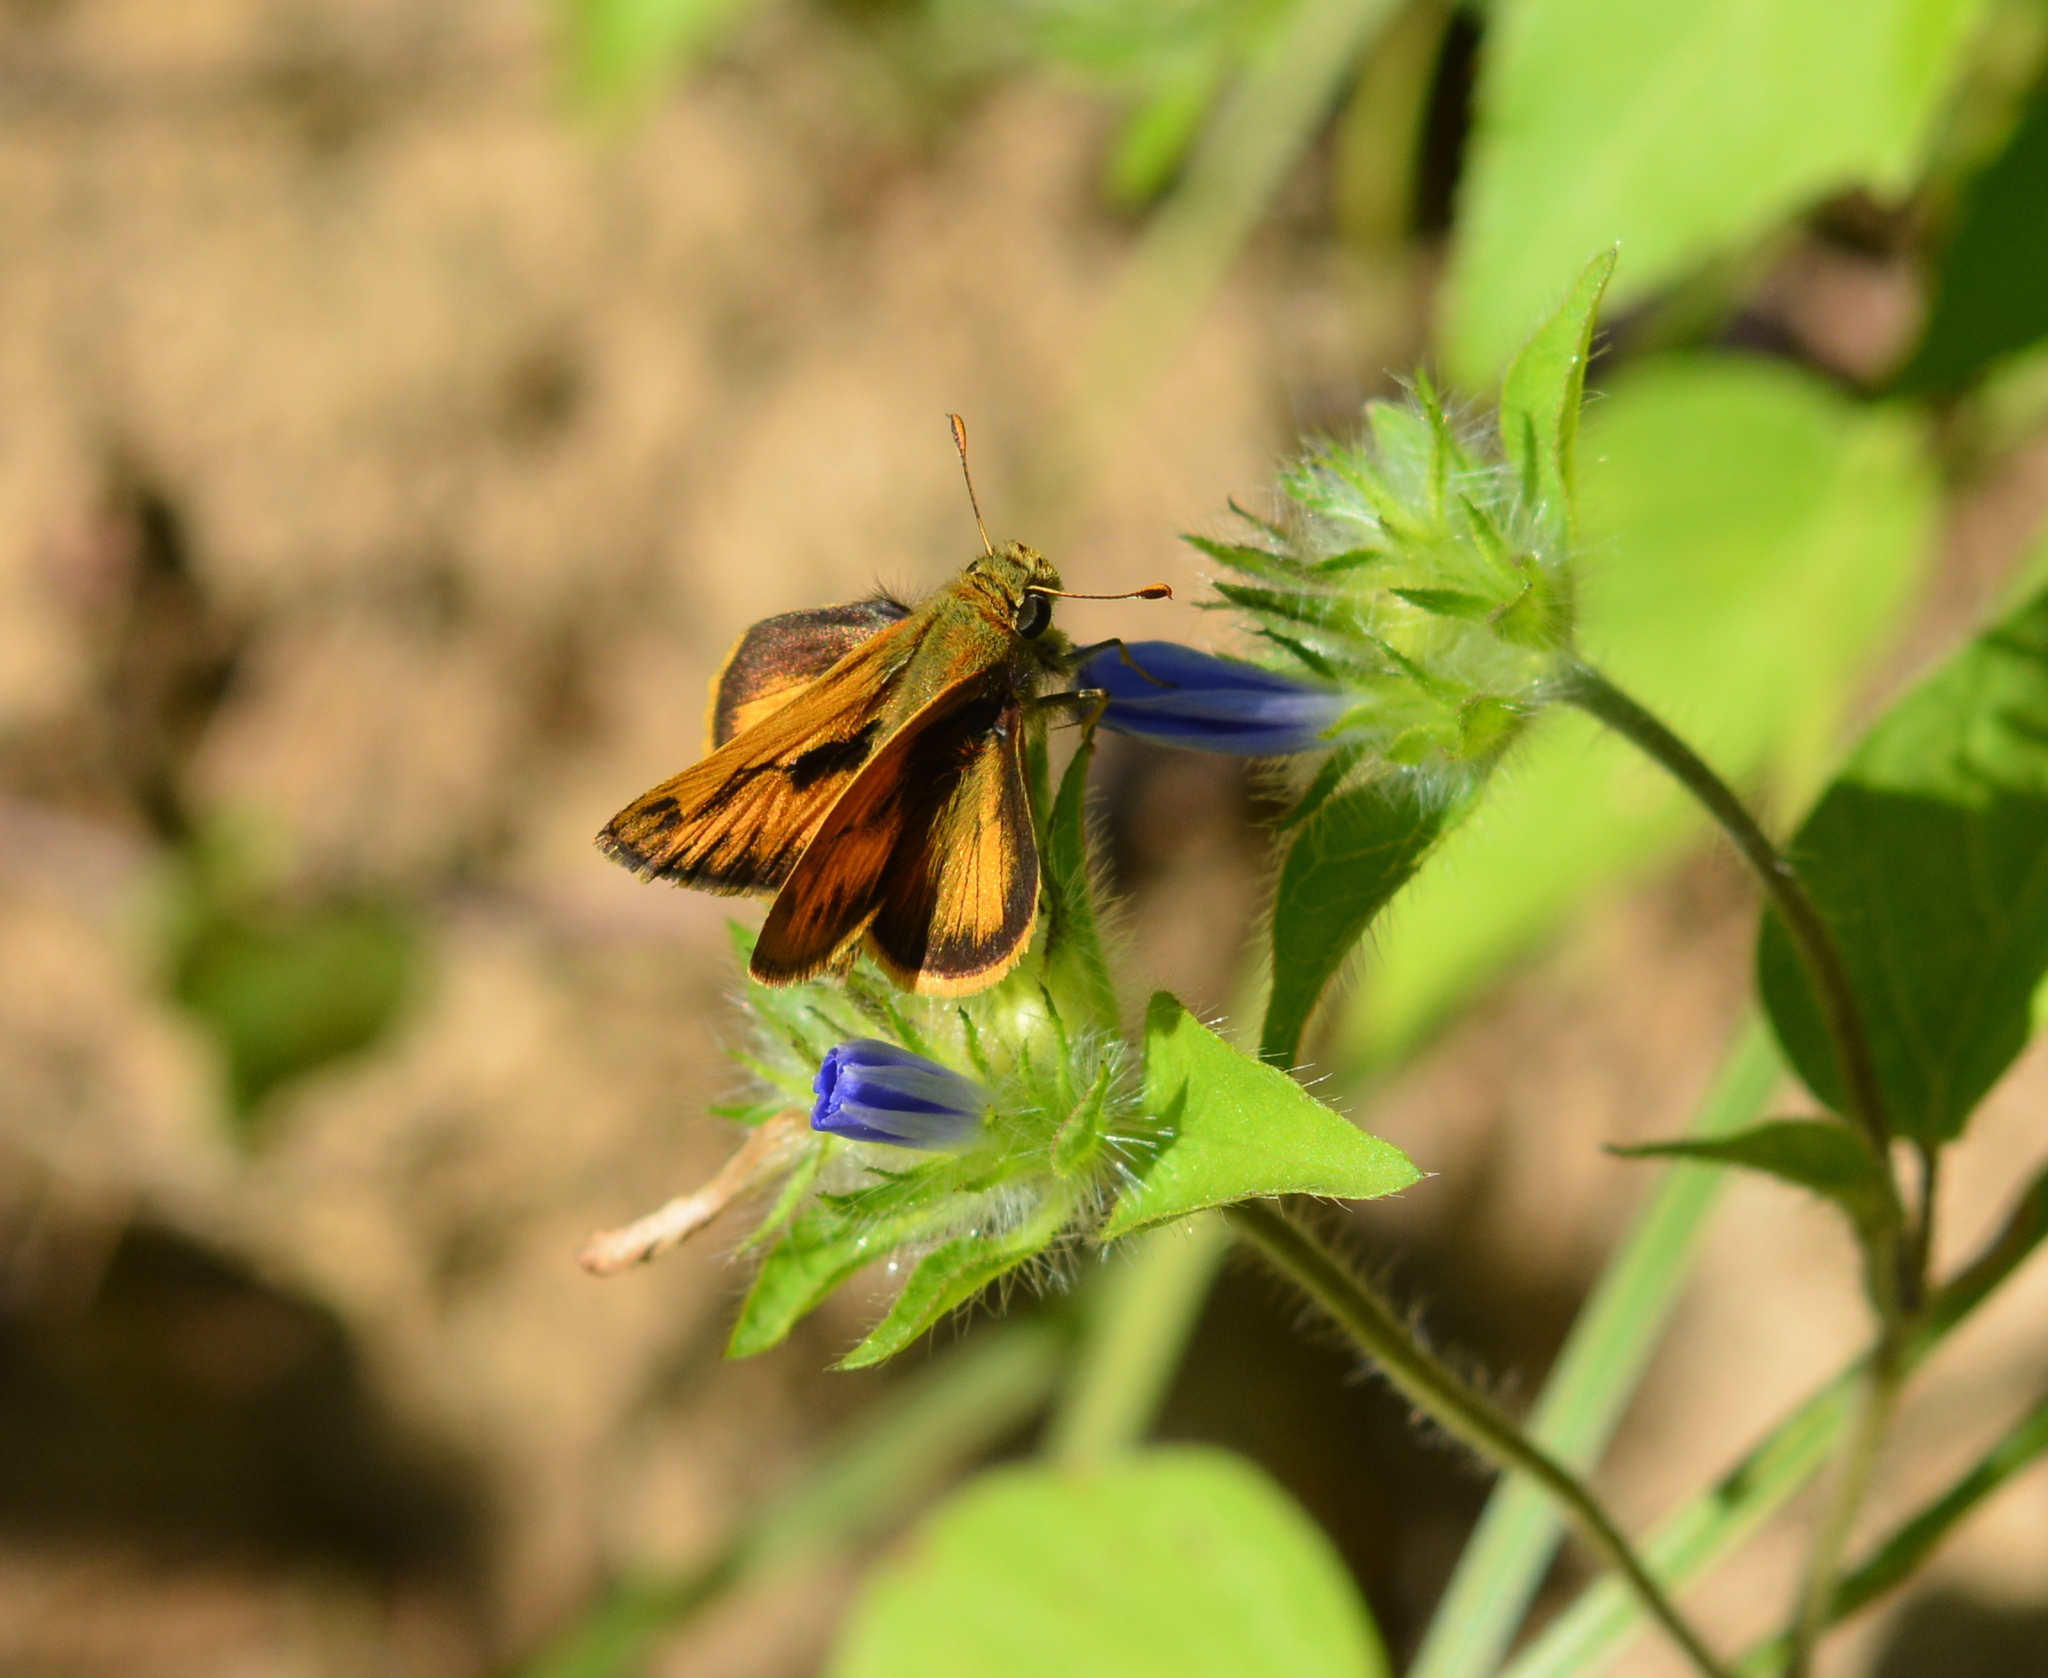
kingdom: Animalia
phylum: Arthropoda
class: Insecta
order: Lepidoptera
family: Hesperiidae
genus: Polites
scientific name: Polites vibex
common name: Whirlabout
